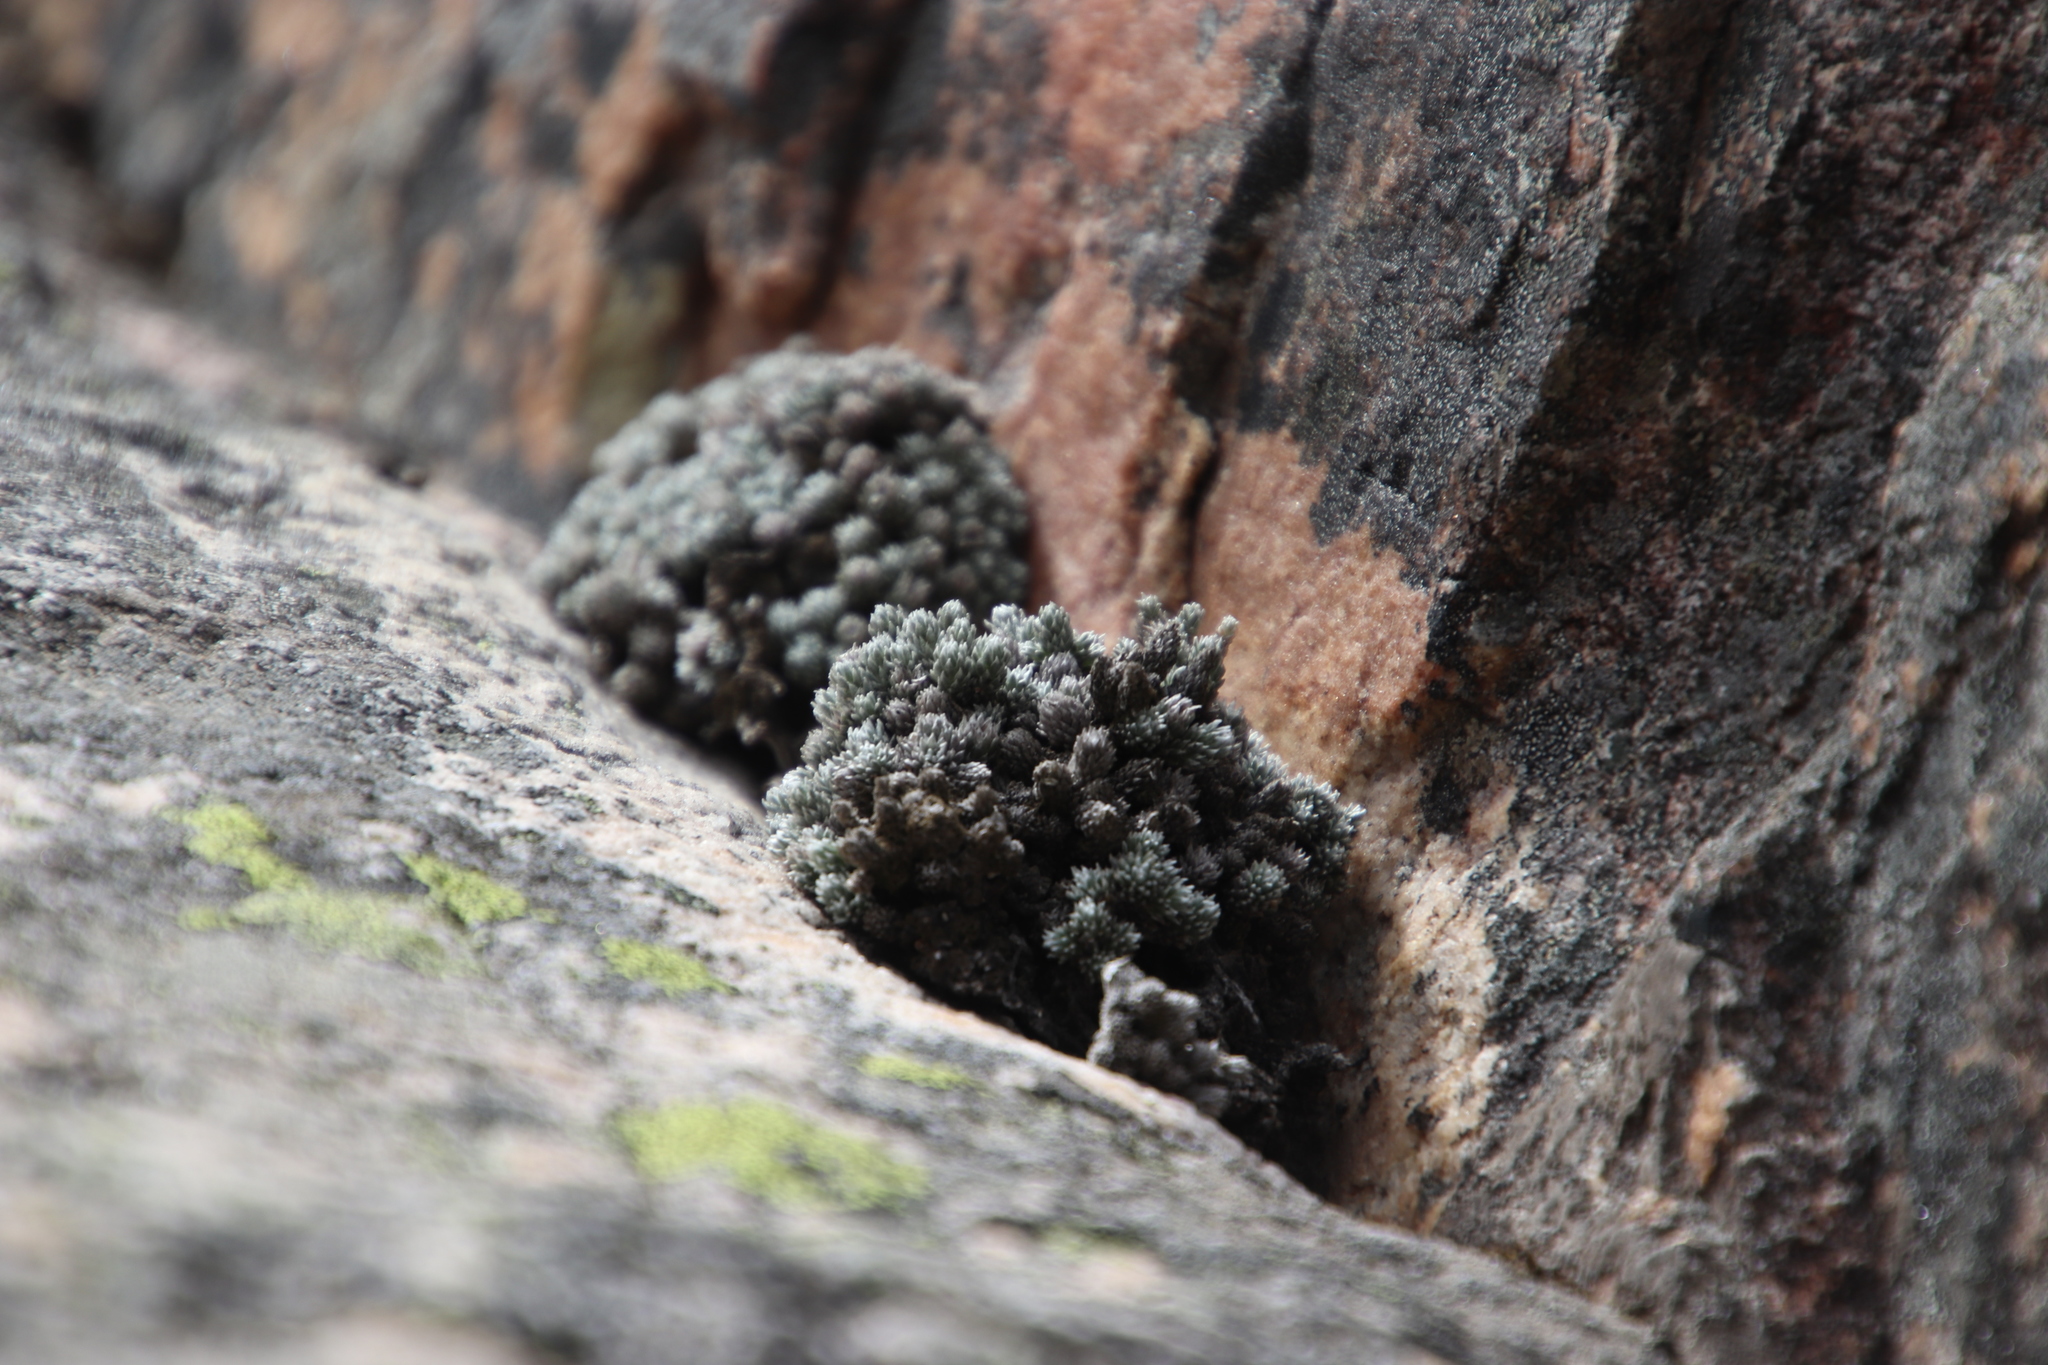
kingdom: Plantae
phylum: Tracheophyta
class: Magnoliopsida
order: Asterales
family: Asteraceae
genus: Muscosomorphe
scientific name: Muscosomorphe aretioides
